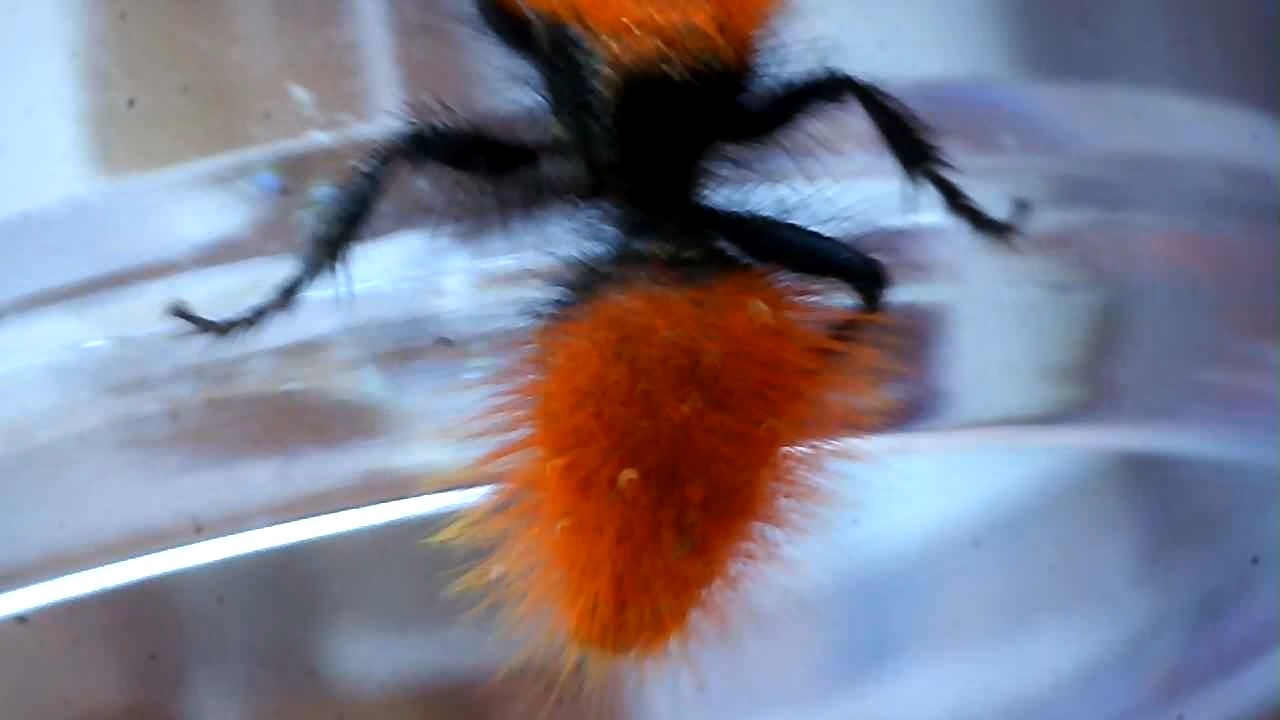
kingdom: Animalia
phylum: Arthropoda
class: Insecta
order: Hymenoptera
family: Mutillidae
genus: Dasymutilla
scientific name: Dasymutilla
